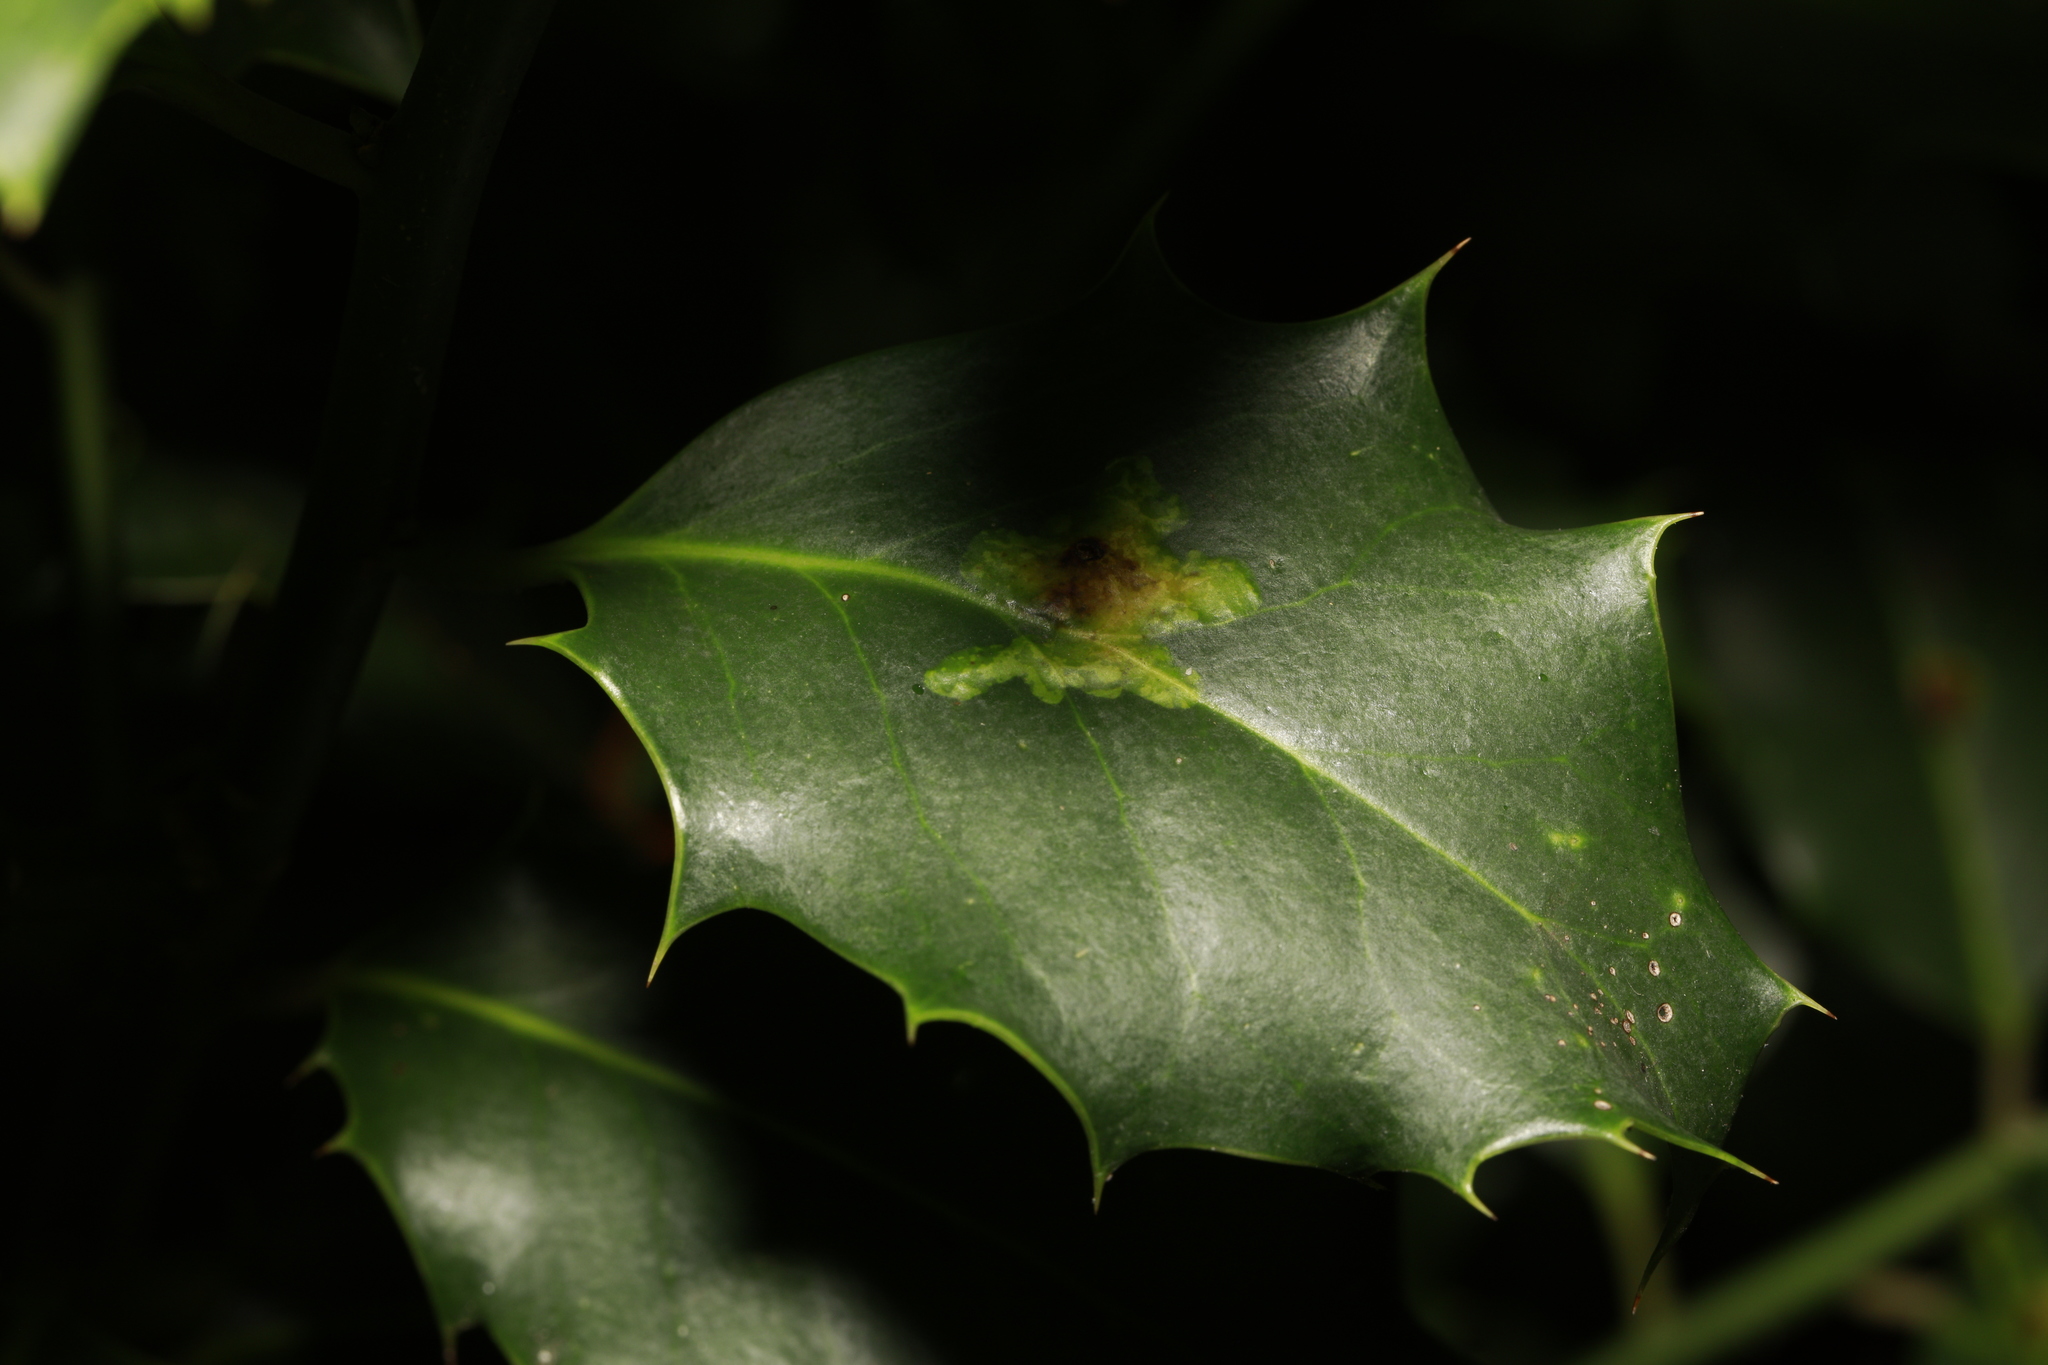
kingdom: Animalia
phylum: Arthropoda
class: Insecta
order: Diptera
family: Agromyzidae
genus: Phytomyza
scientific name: Phytomyza ilicis
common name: Holly leafminer
